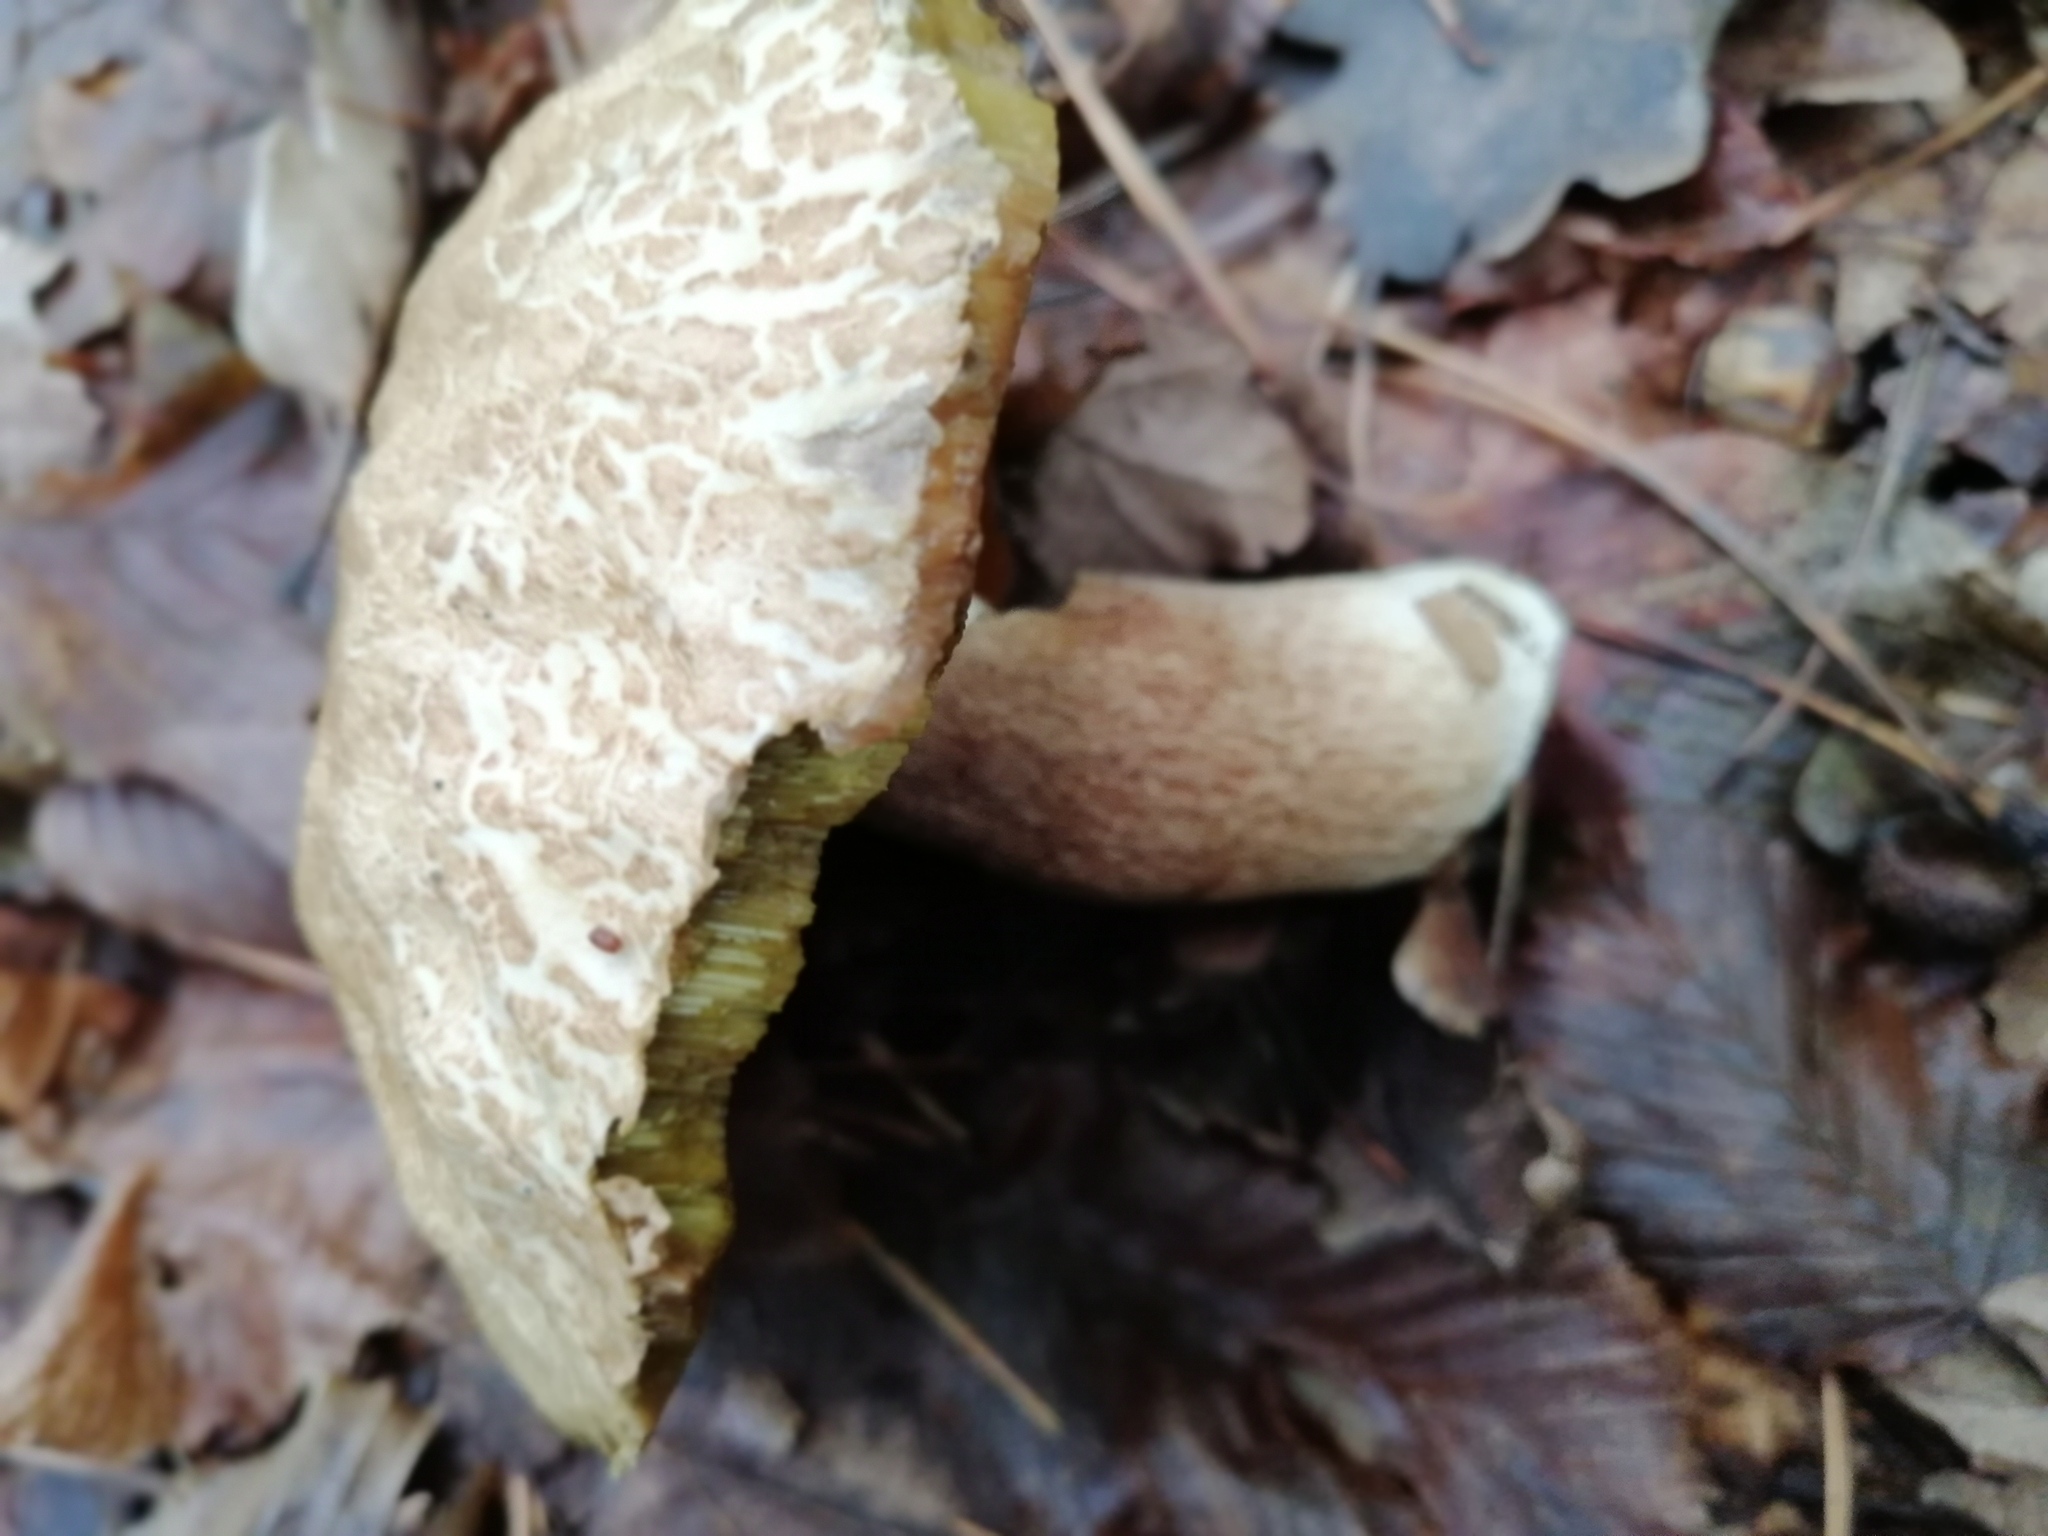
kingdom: Fungi
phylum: Basidiomycota
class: Agaricomycetes
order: Boletales
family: Boletaceae
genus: Boletus
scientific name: Boletus reticulatus
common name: Summer bolete
